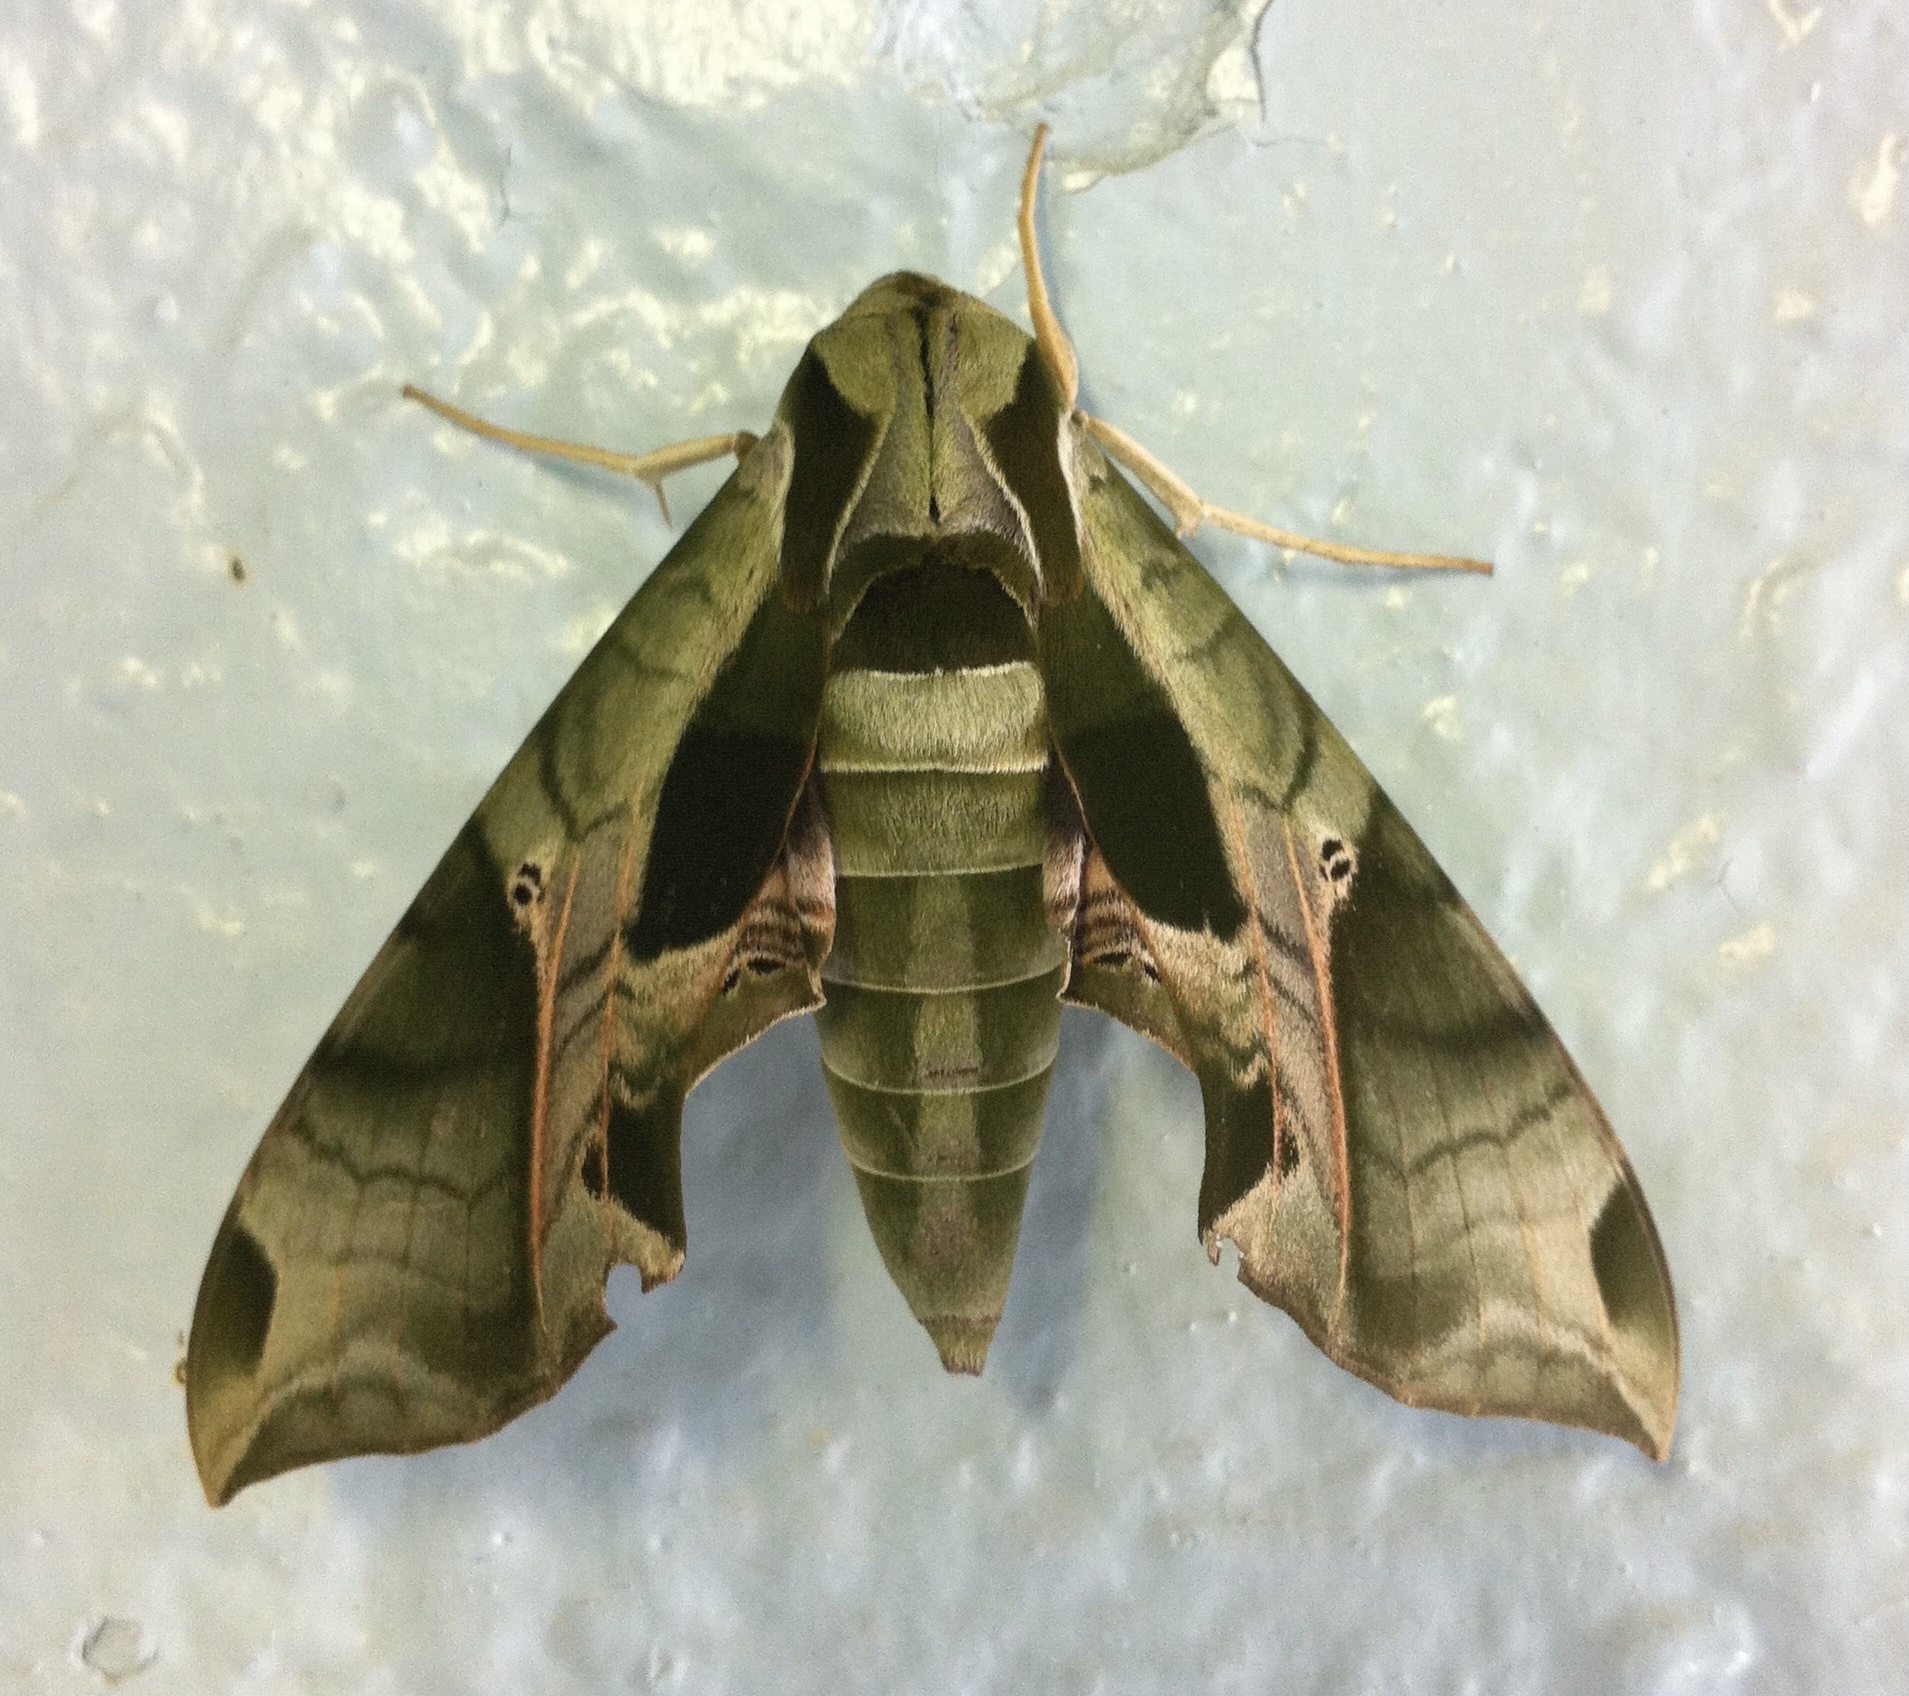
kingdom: Animalia
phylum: Arthropoda
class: Insecta
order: Lepidoptera
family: Sphingidae
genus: Eumorpha
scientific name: Eumorpha pandorus
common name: Pandora sphinx
